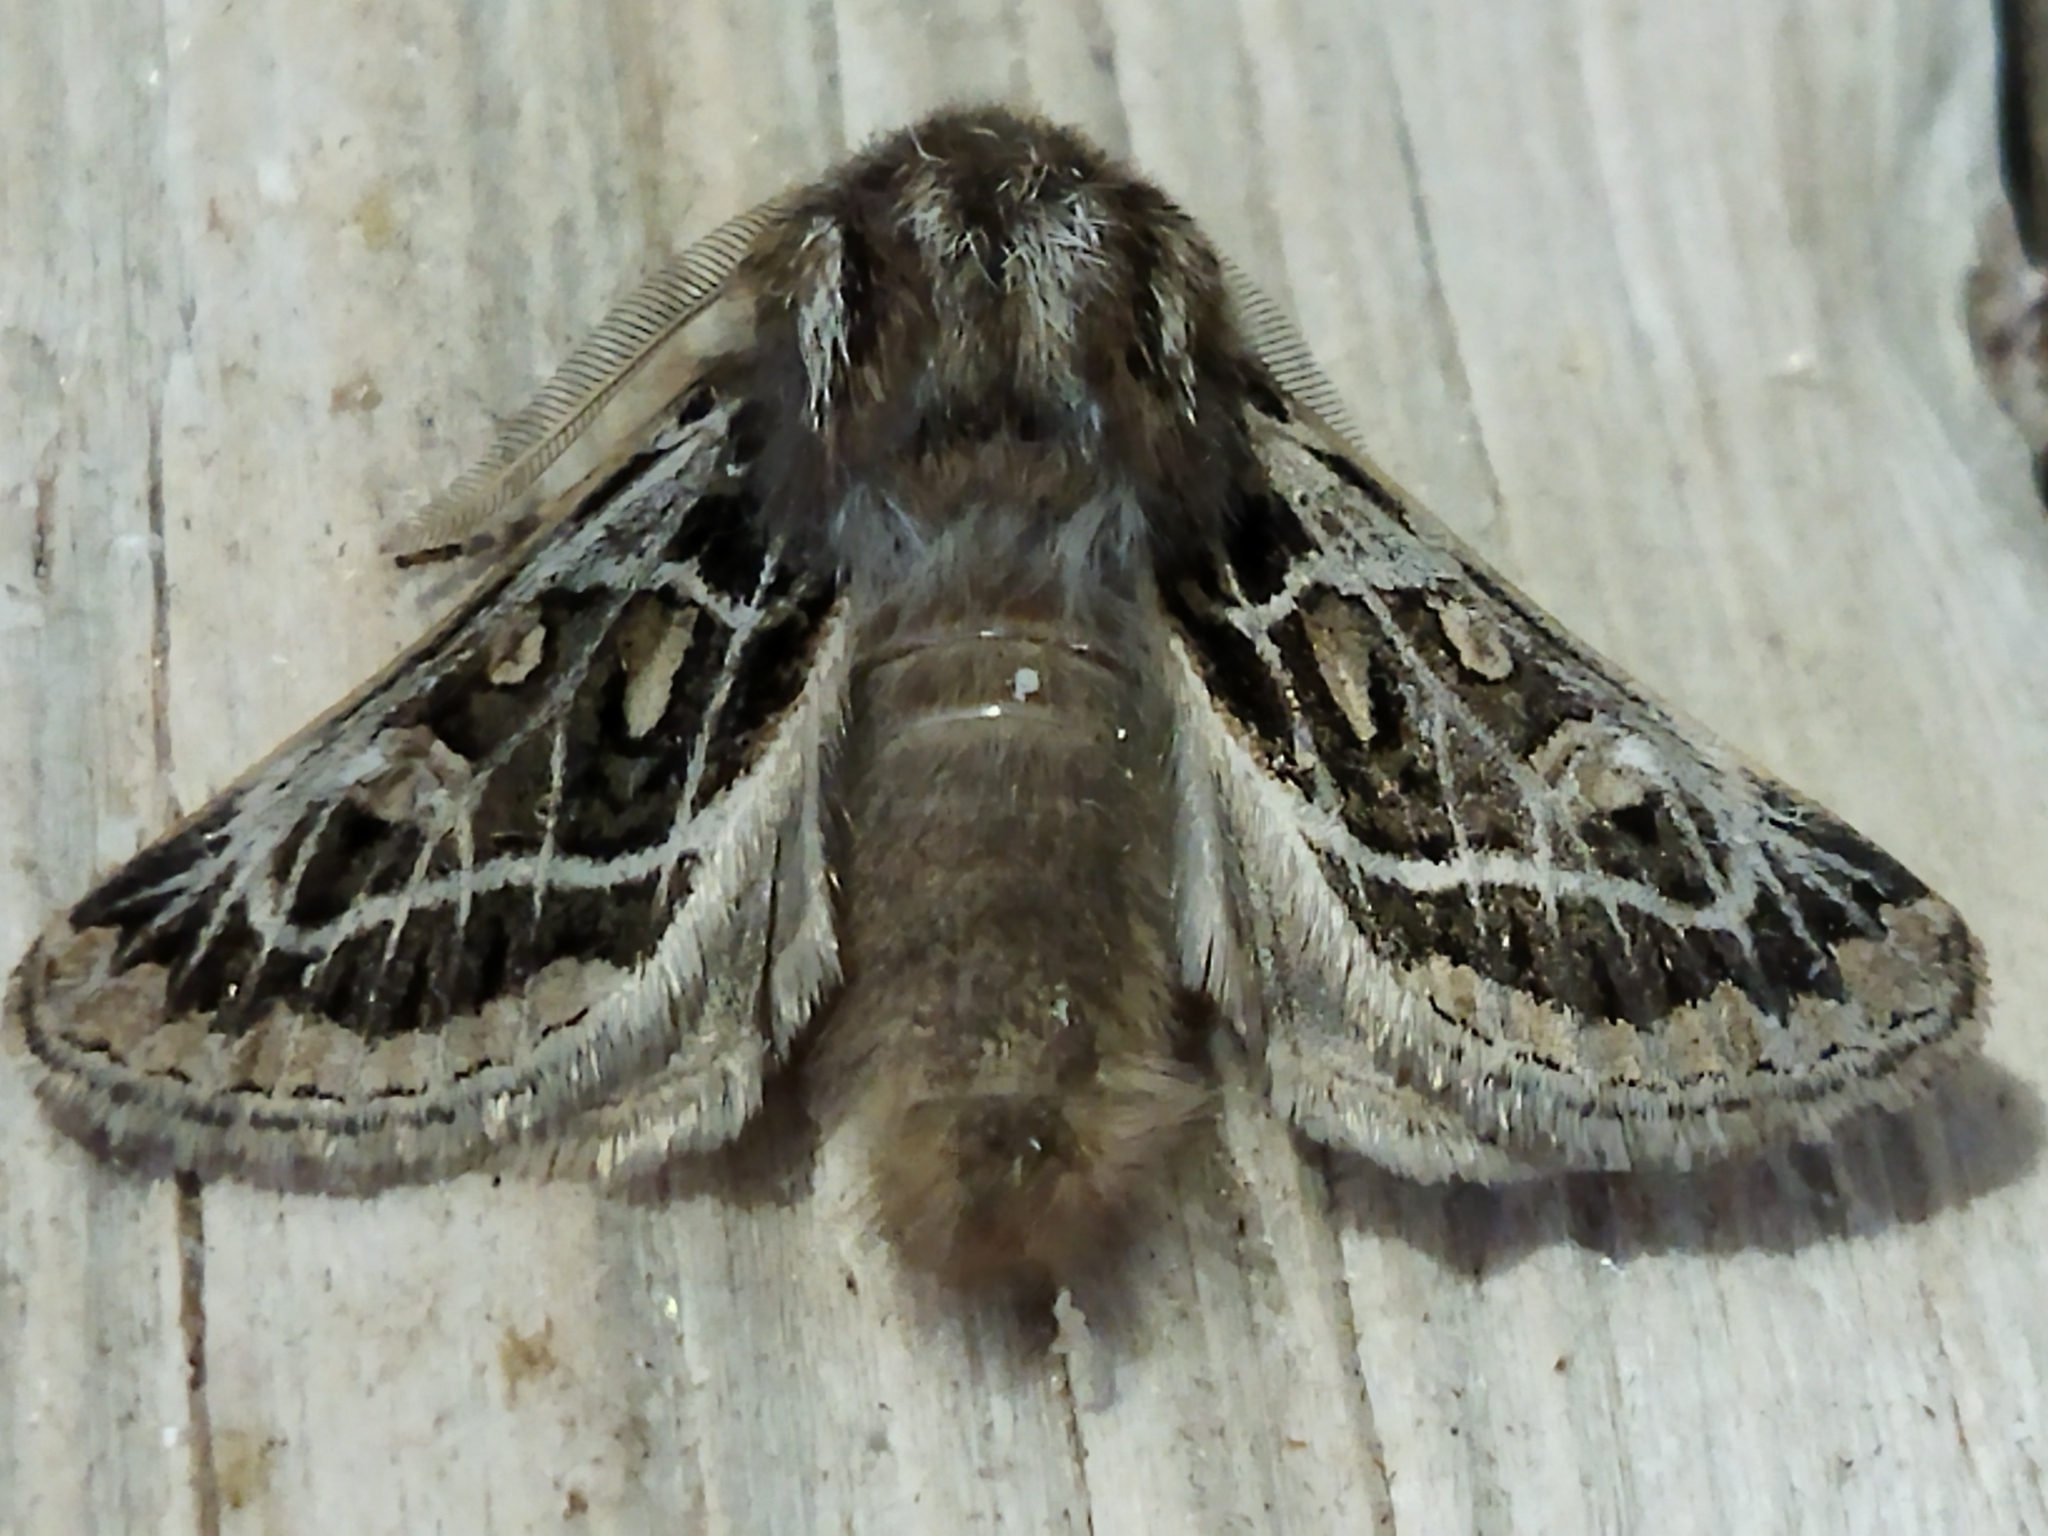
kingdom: Animalia
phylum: Arthropoda
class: Insecta
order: Lepidoptera
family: Noctuidae
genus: Ulochlaena
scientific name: Ulochlaena hirta
